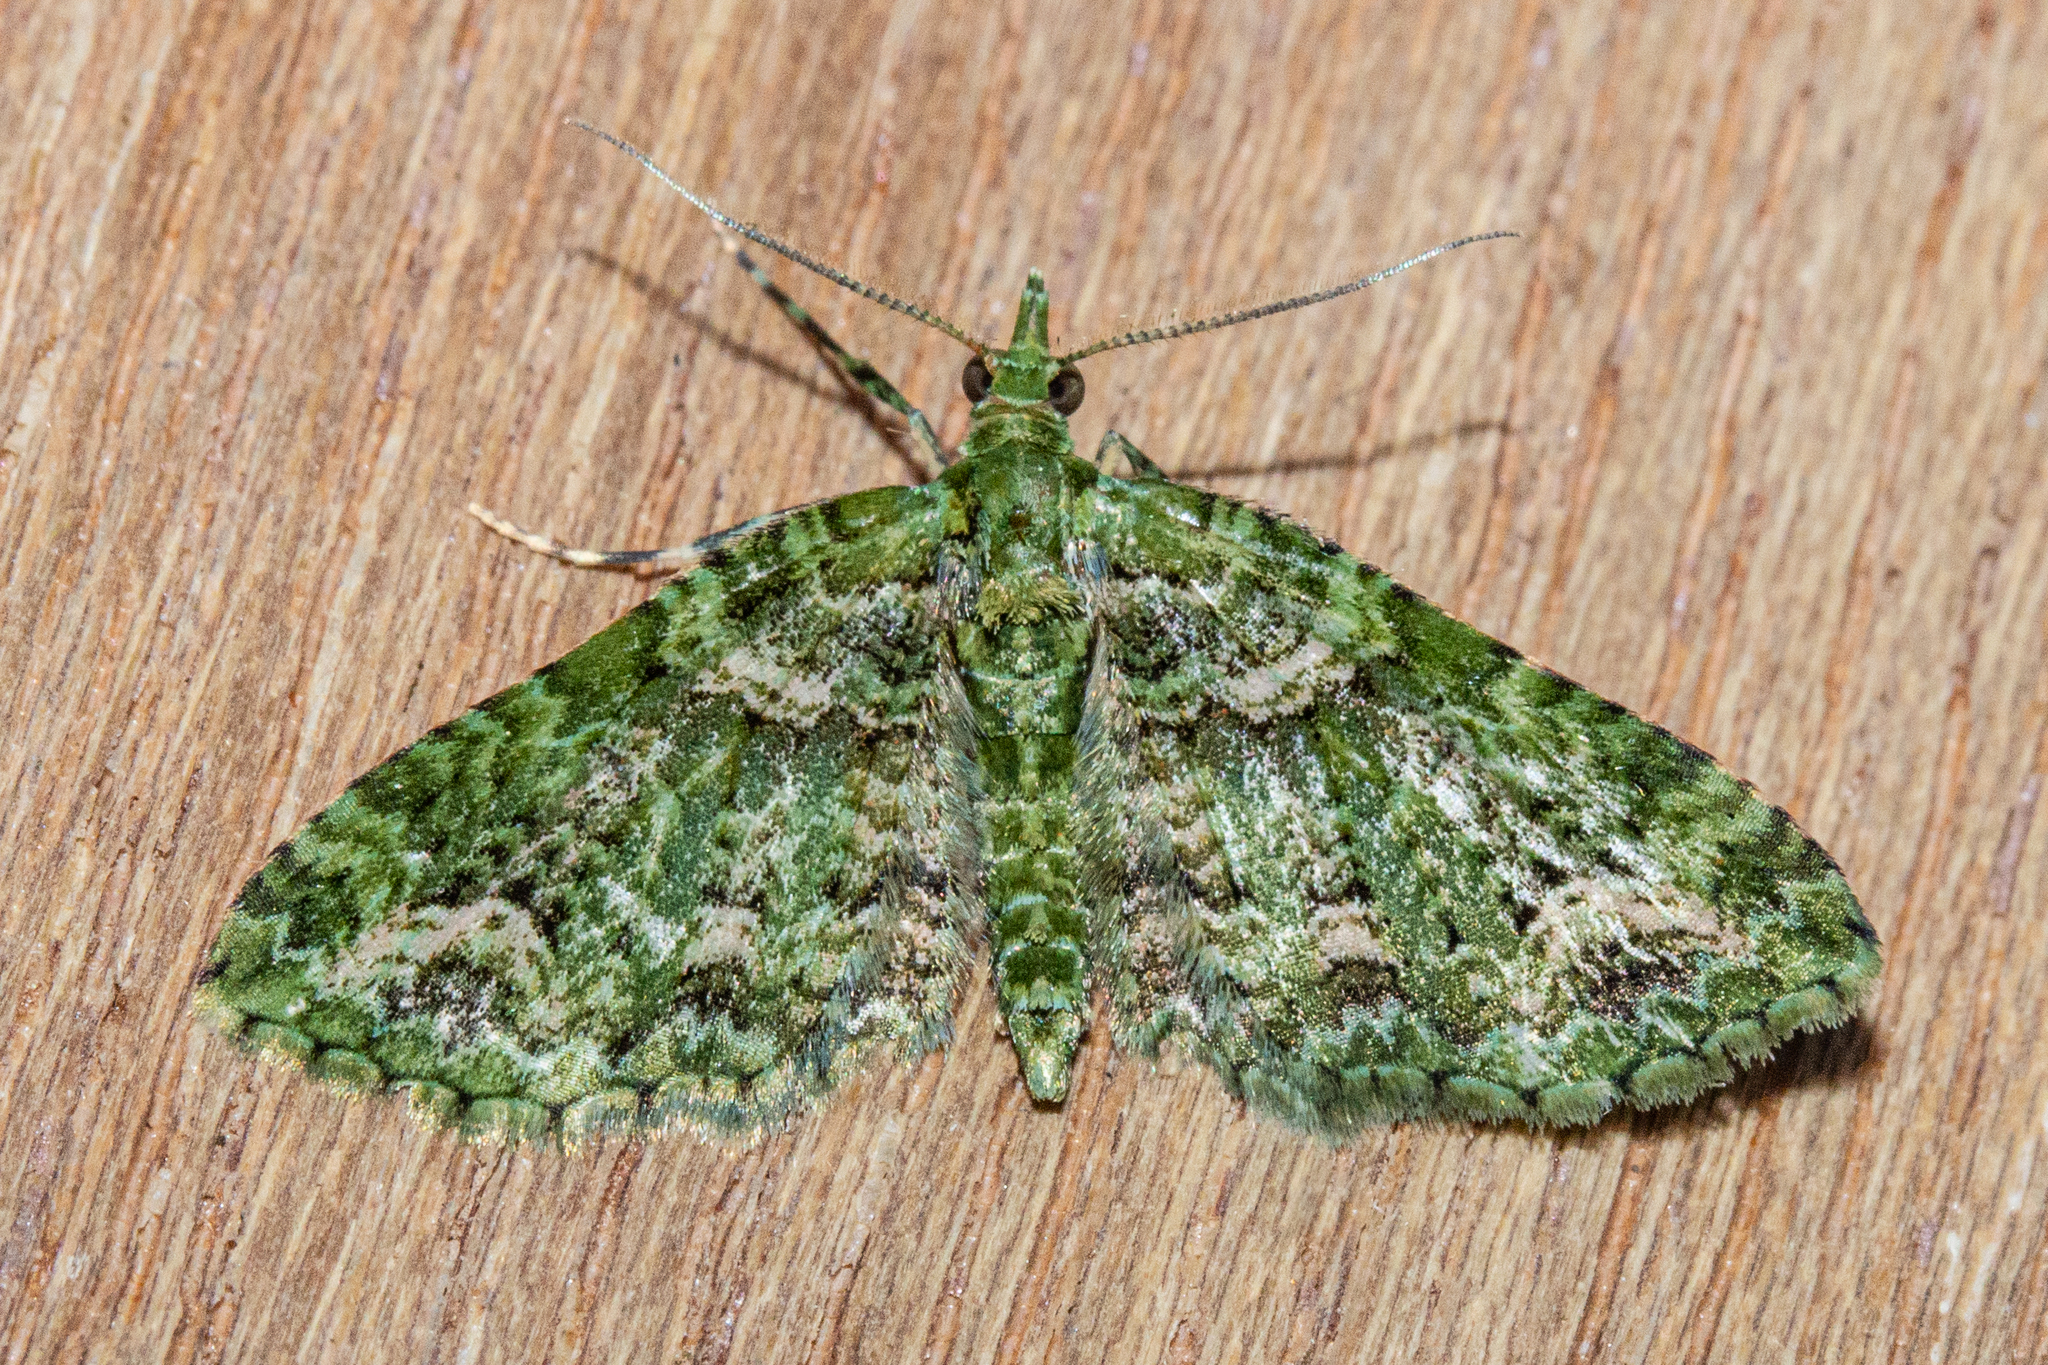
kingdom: Animalia
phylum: Arthropoda
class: Insecta
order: Lepidoptera
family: Geometridae
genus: Pasiphila
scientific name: Pasiphila muscosata
